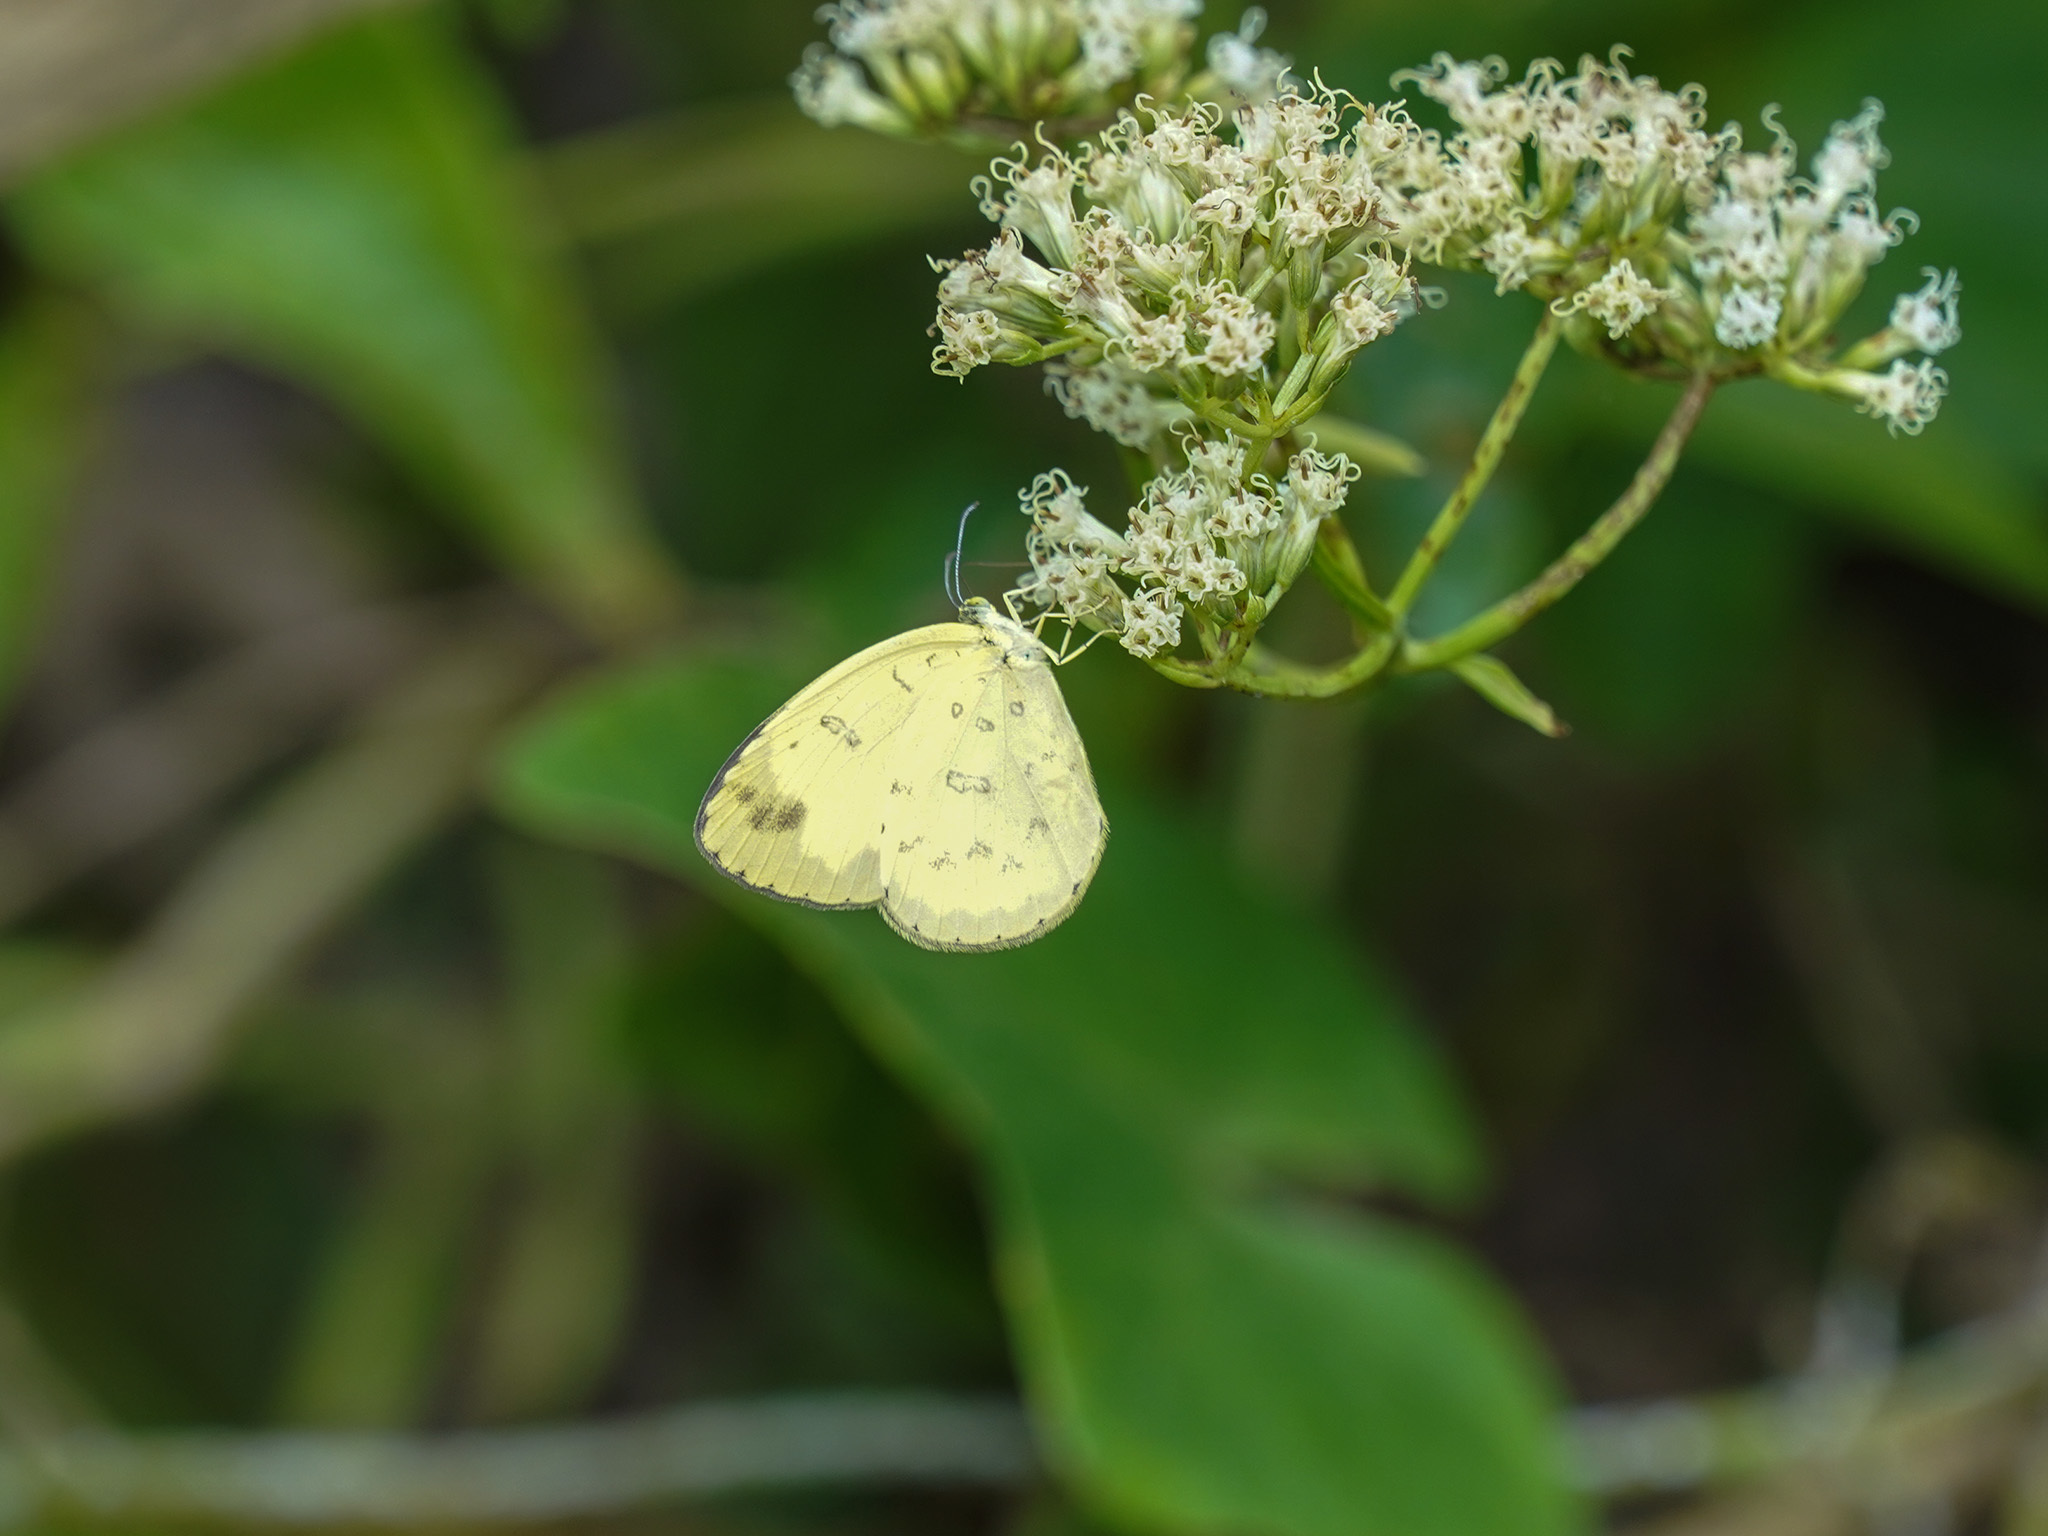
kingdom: Animalia
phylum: Arthropoda
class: Insecta
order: Lepidoptera
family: Pieridae
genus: Eurema
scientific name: Eurema blanda
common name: Three-spot grass yellow
